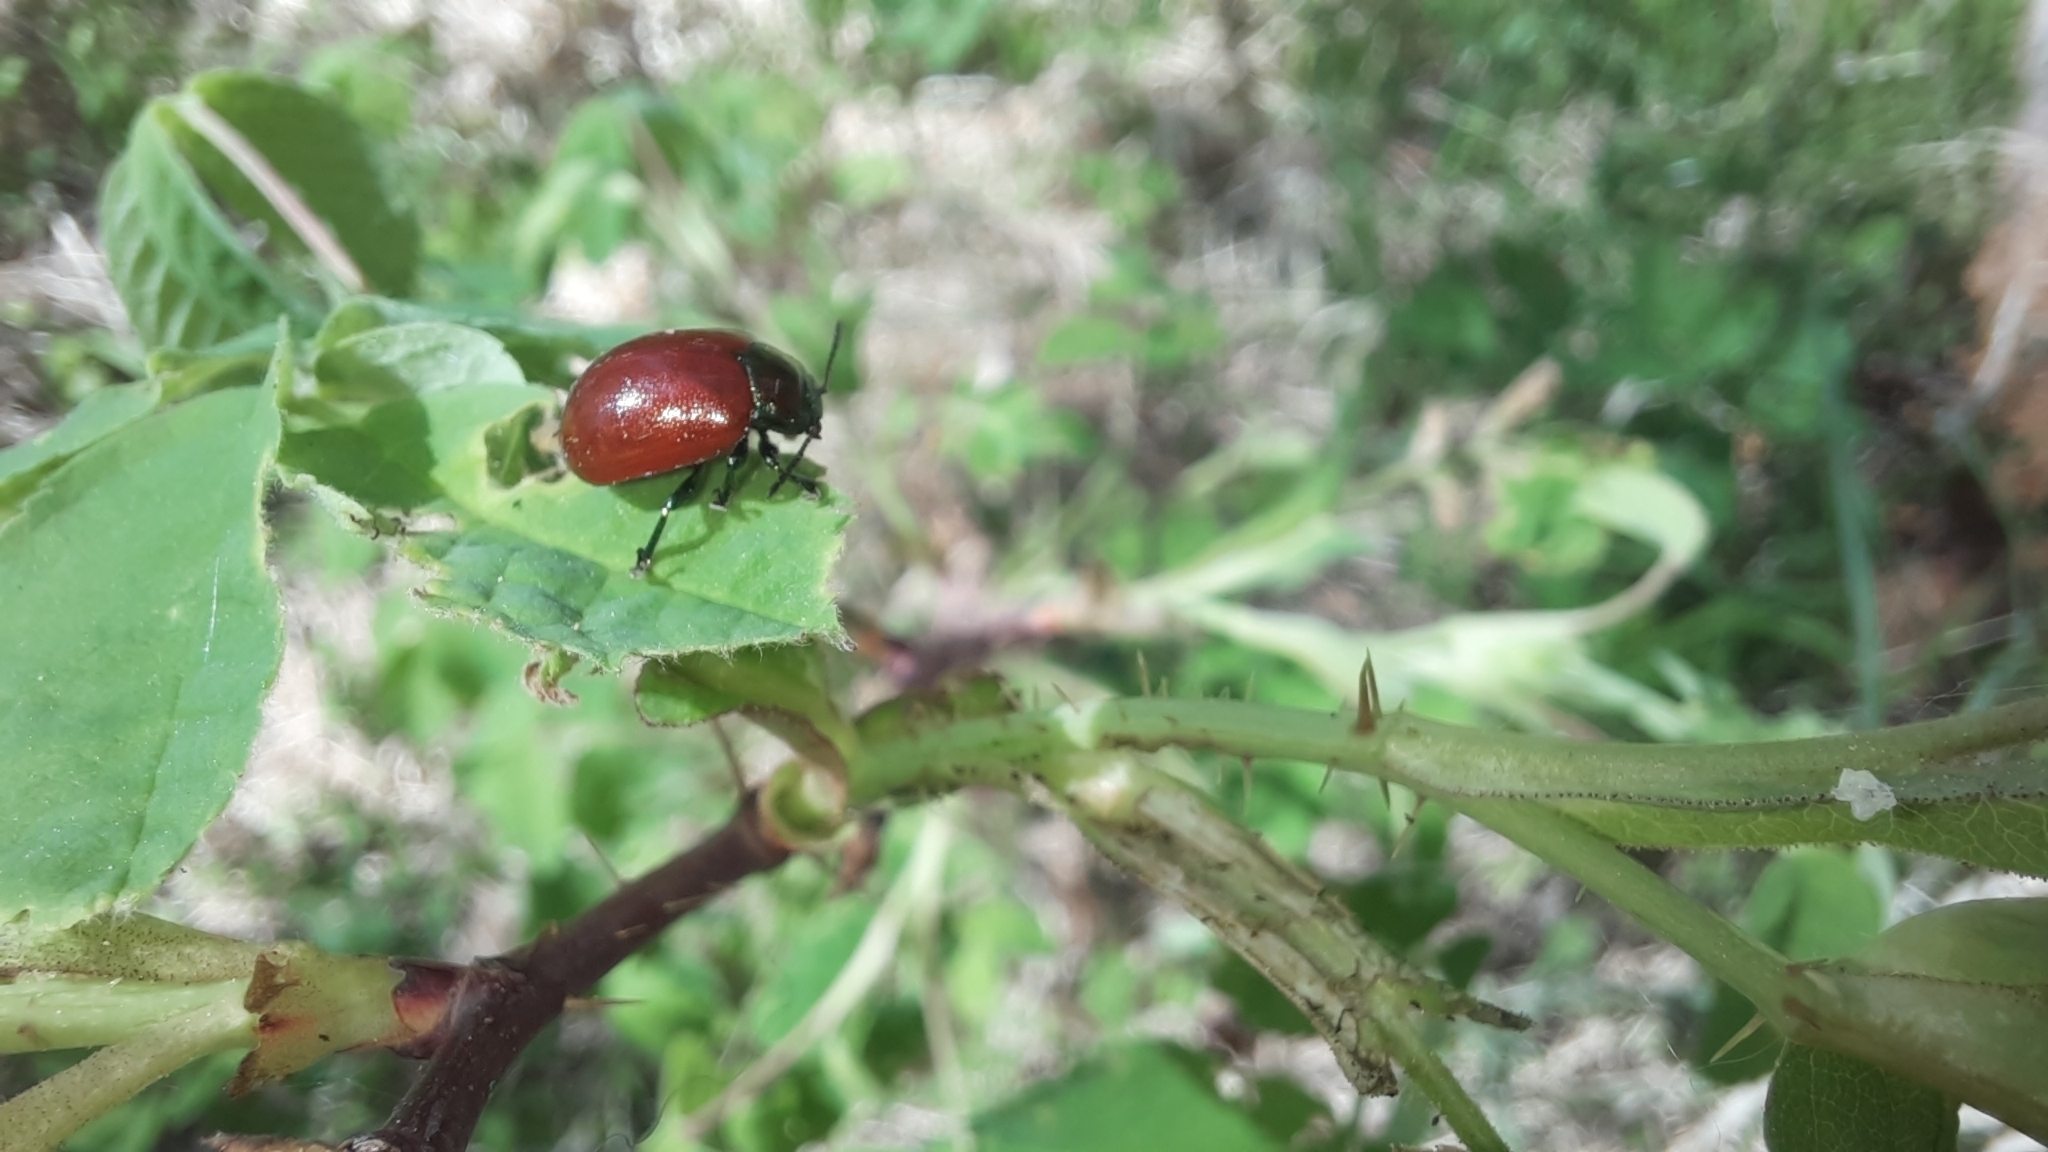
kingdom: Animalia
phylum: Arthropoda
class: Insecta
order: Coleoptera
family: Chrysomelidae
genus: Chrysomela
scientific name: Chrysomela polita
